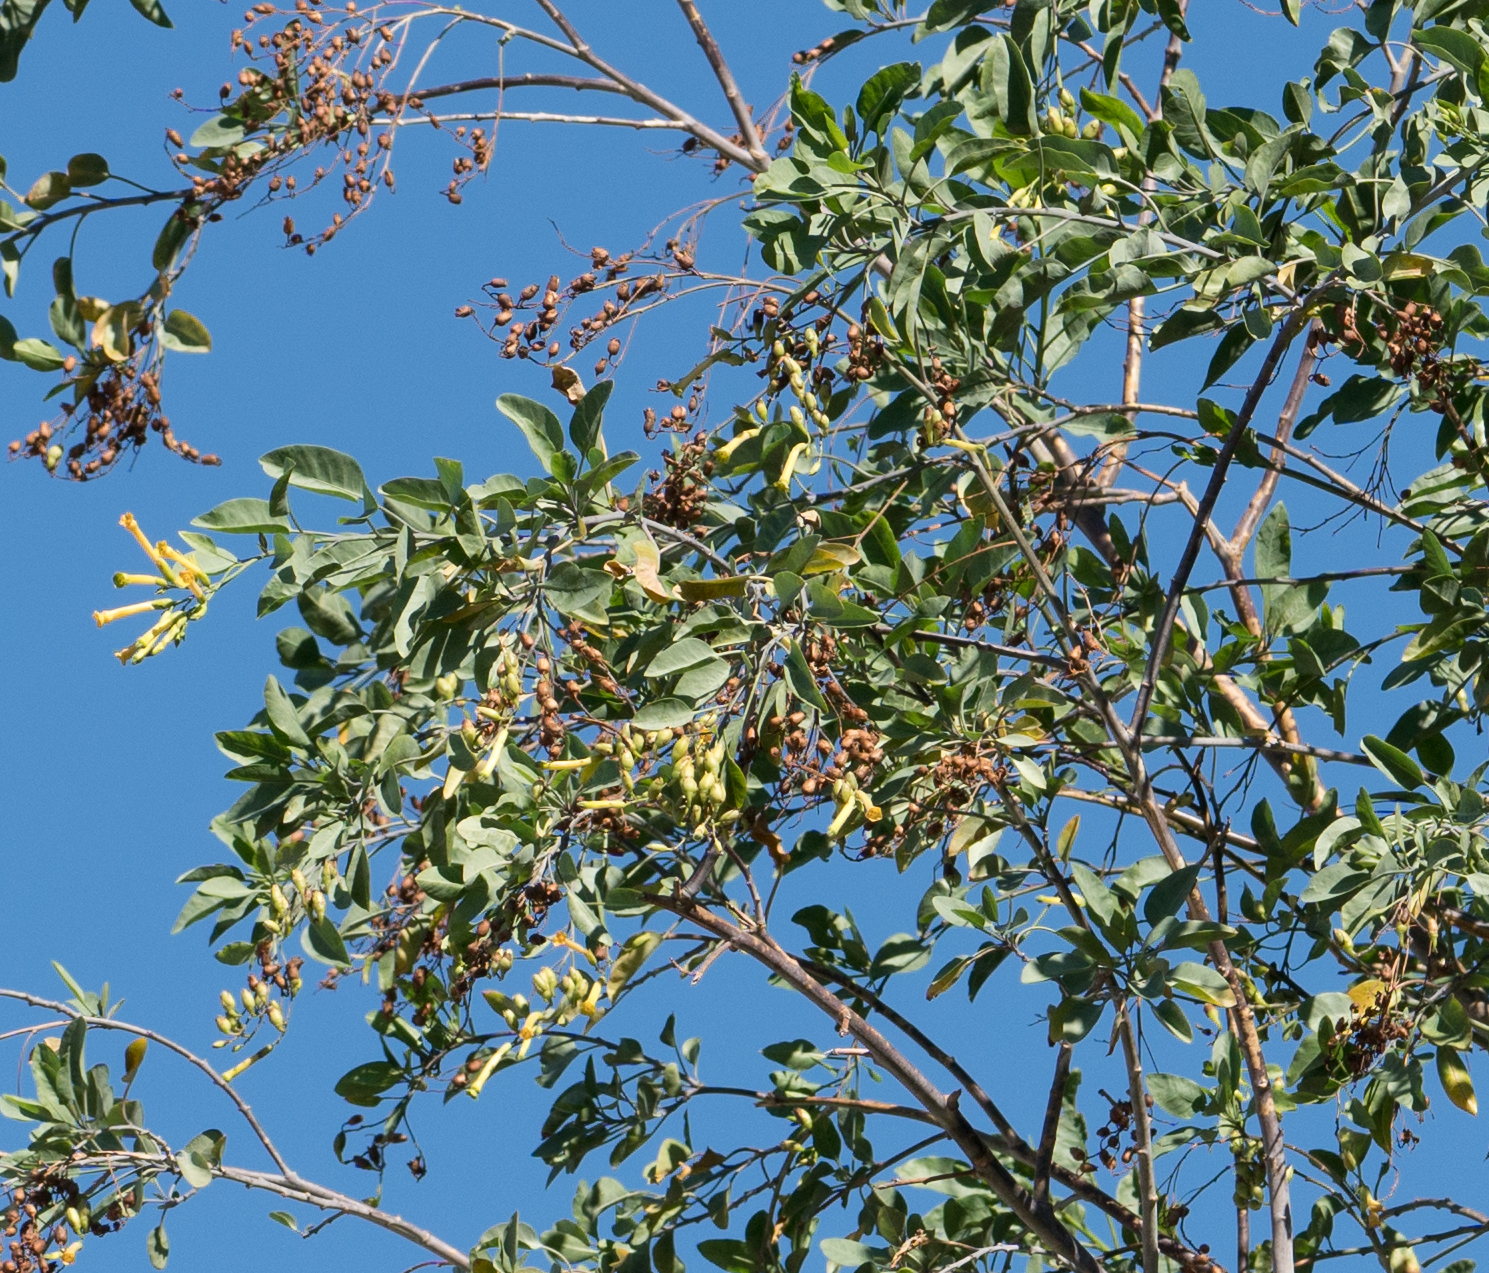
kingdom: Plantae
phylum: Tracheophyta
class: Magnoliopsida
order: Solanales
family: Solanaceae
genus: Nicotiana
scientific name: Nicotiana glauca
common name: Tree tobacco
